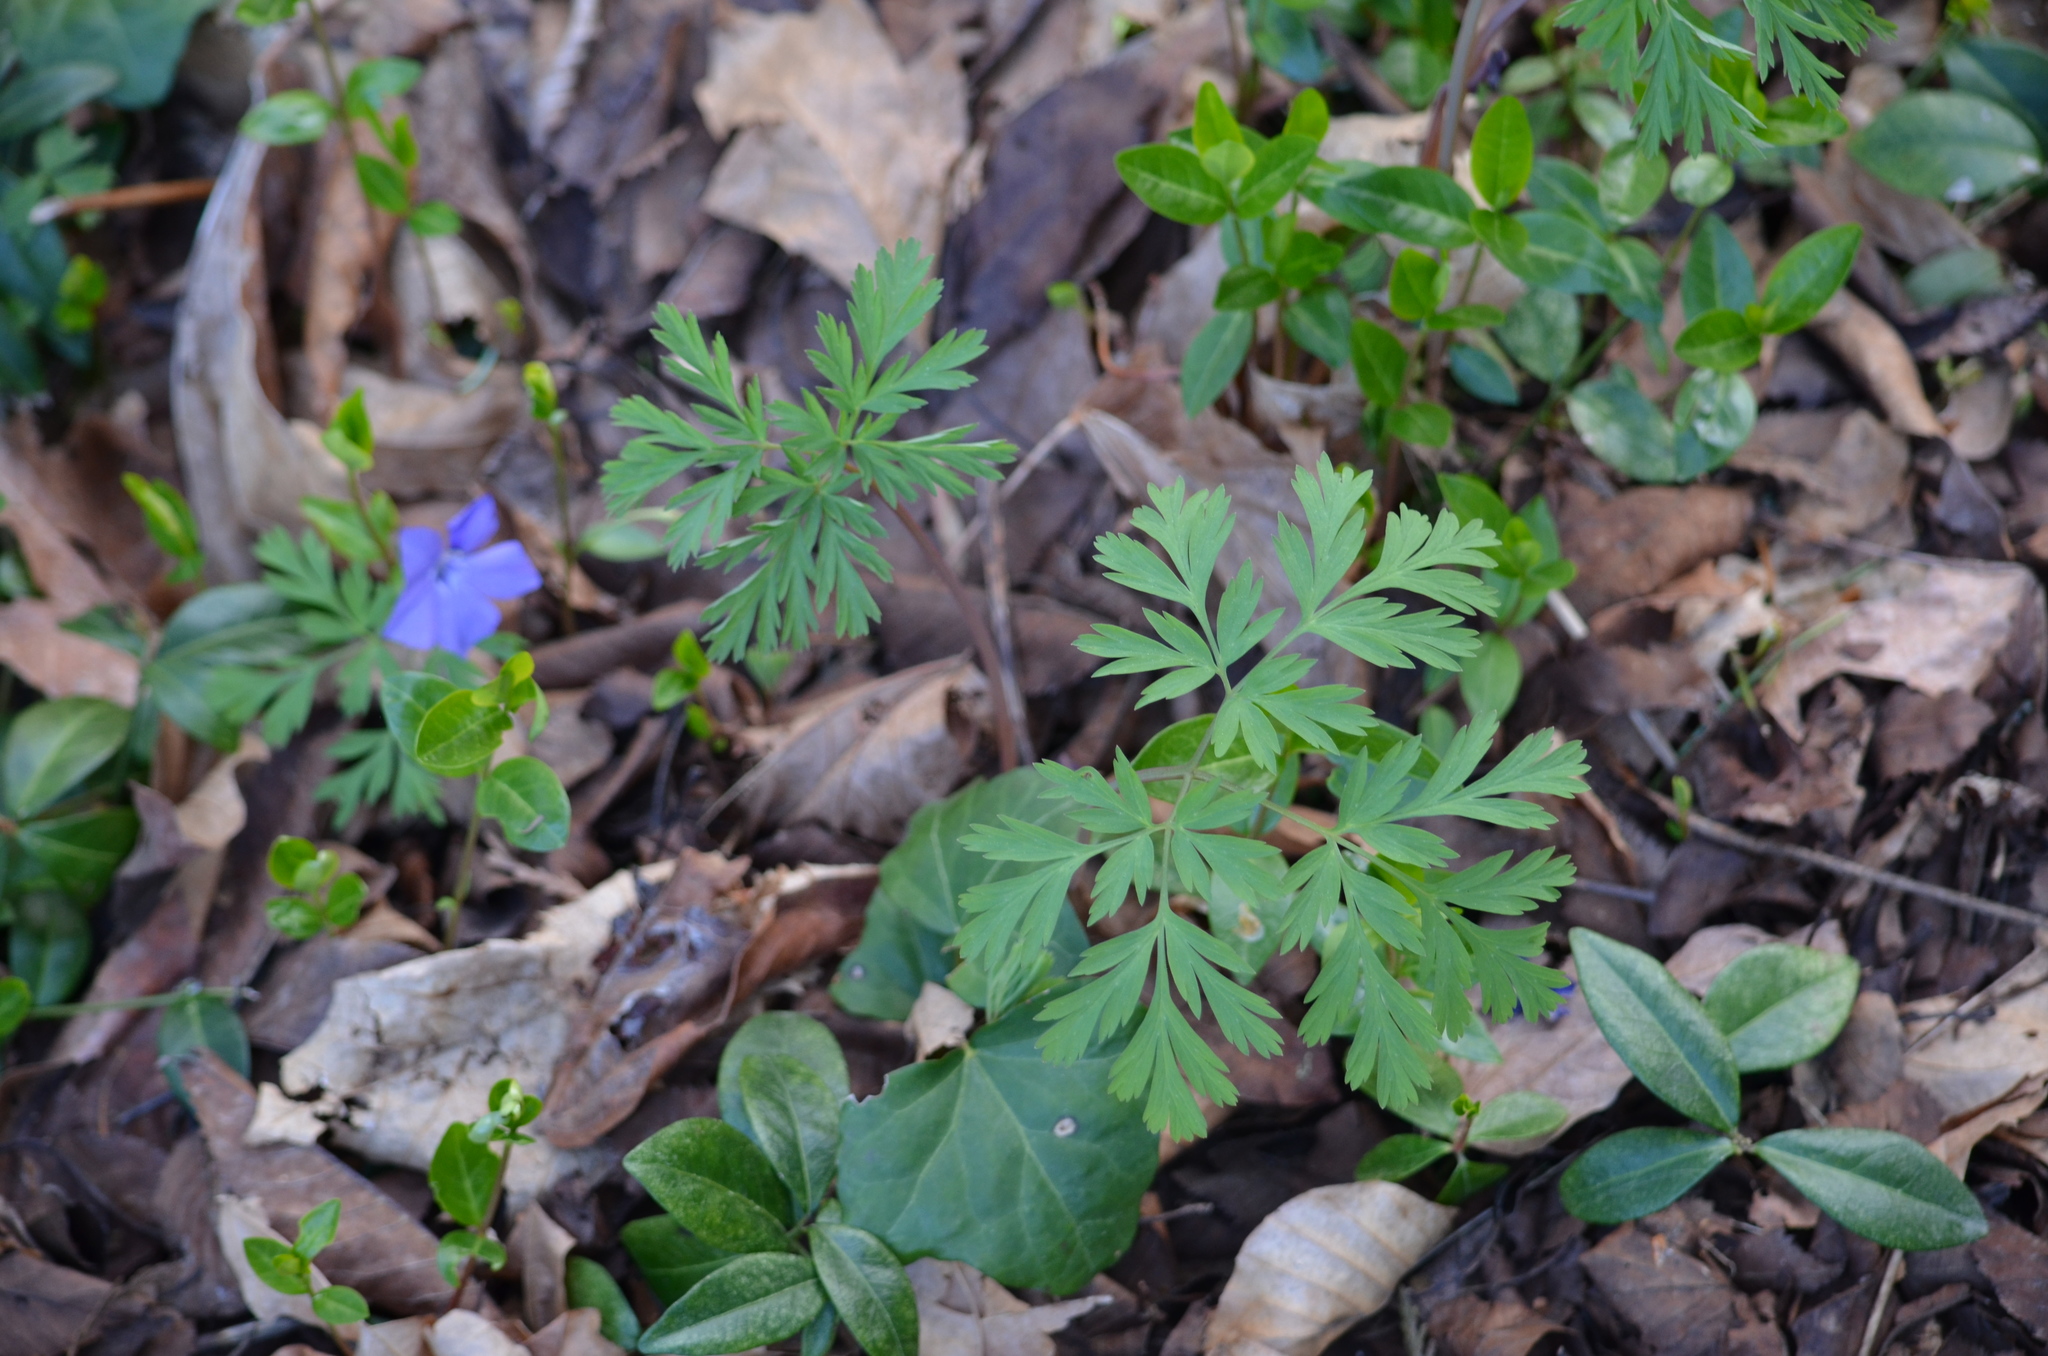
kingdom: Plantae
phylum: Tracheophyta
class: Magnoliopsida
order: Ranunculales
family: Papaveraceae
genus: Dicentra
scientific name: Dicentra formosa
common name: Bleeding-heart
